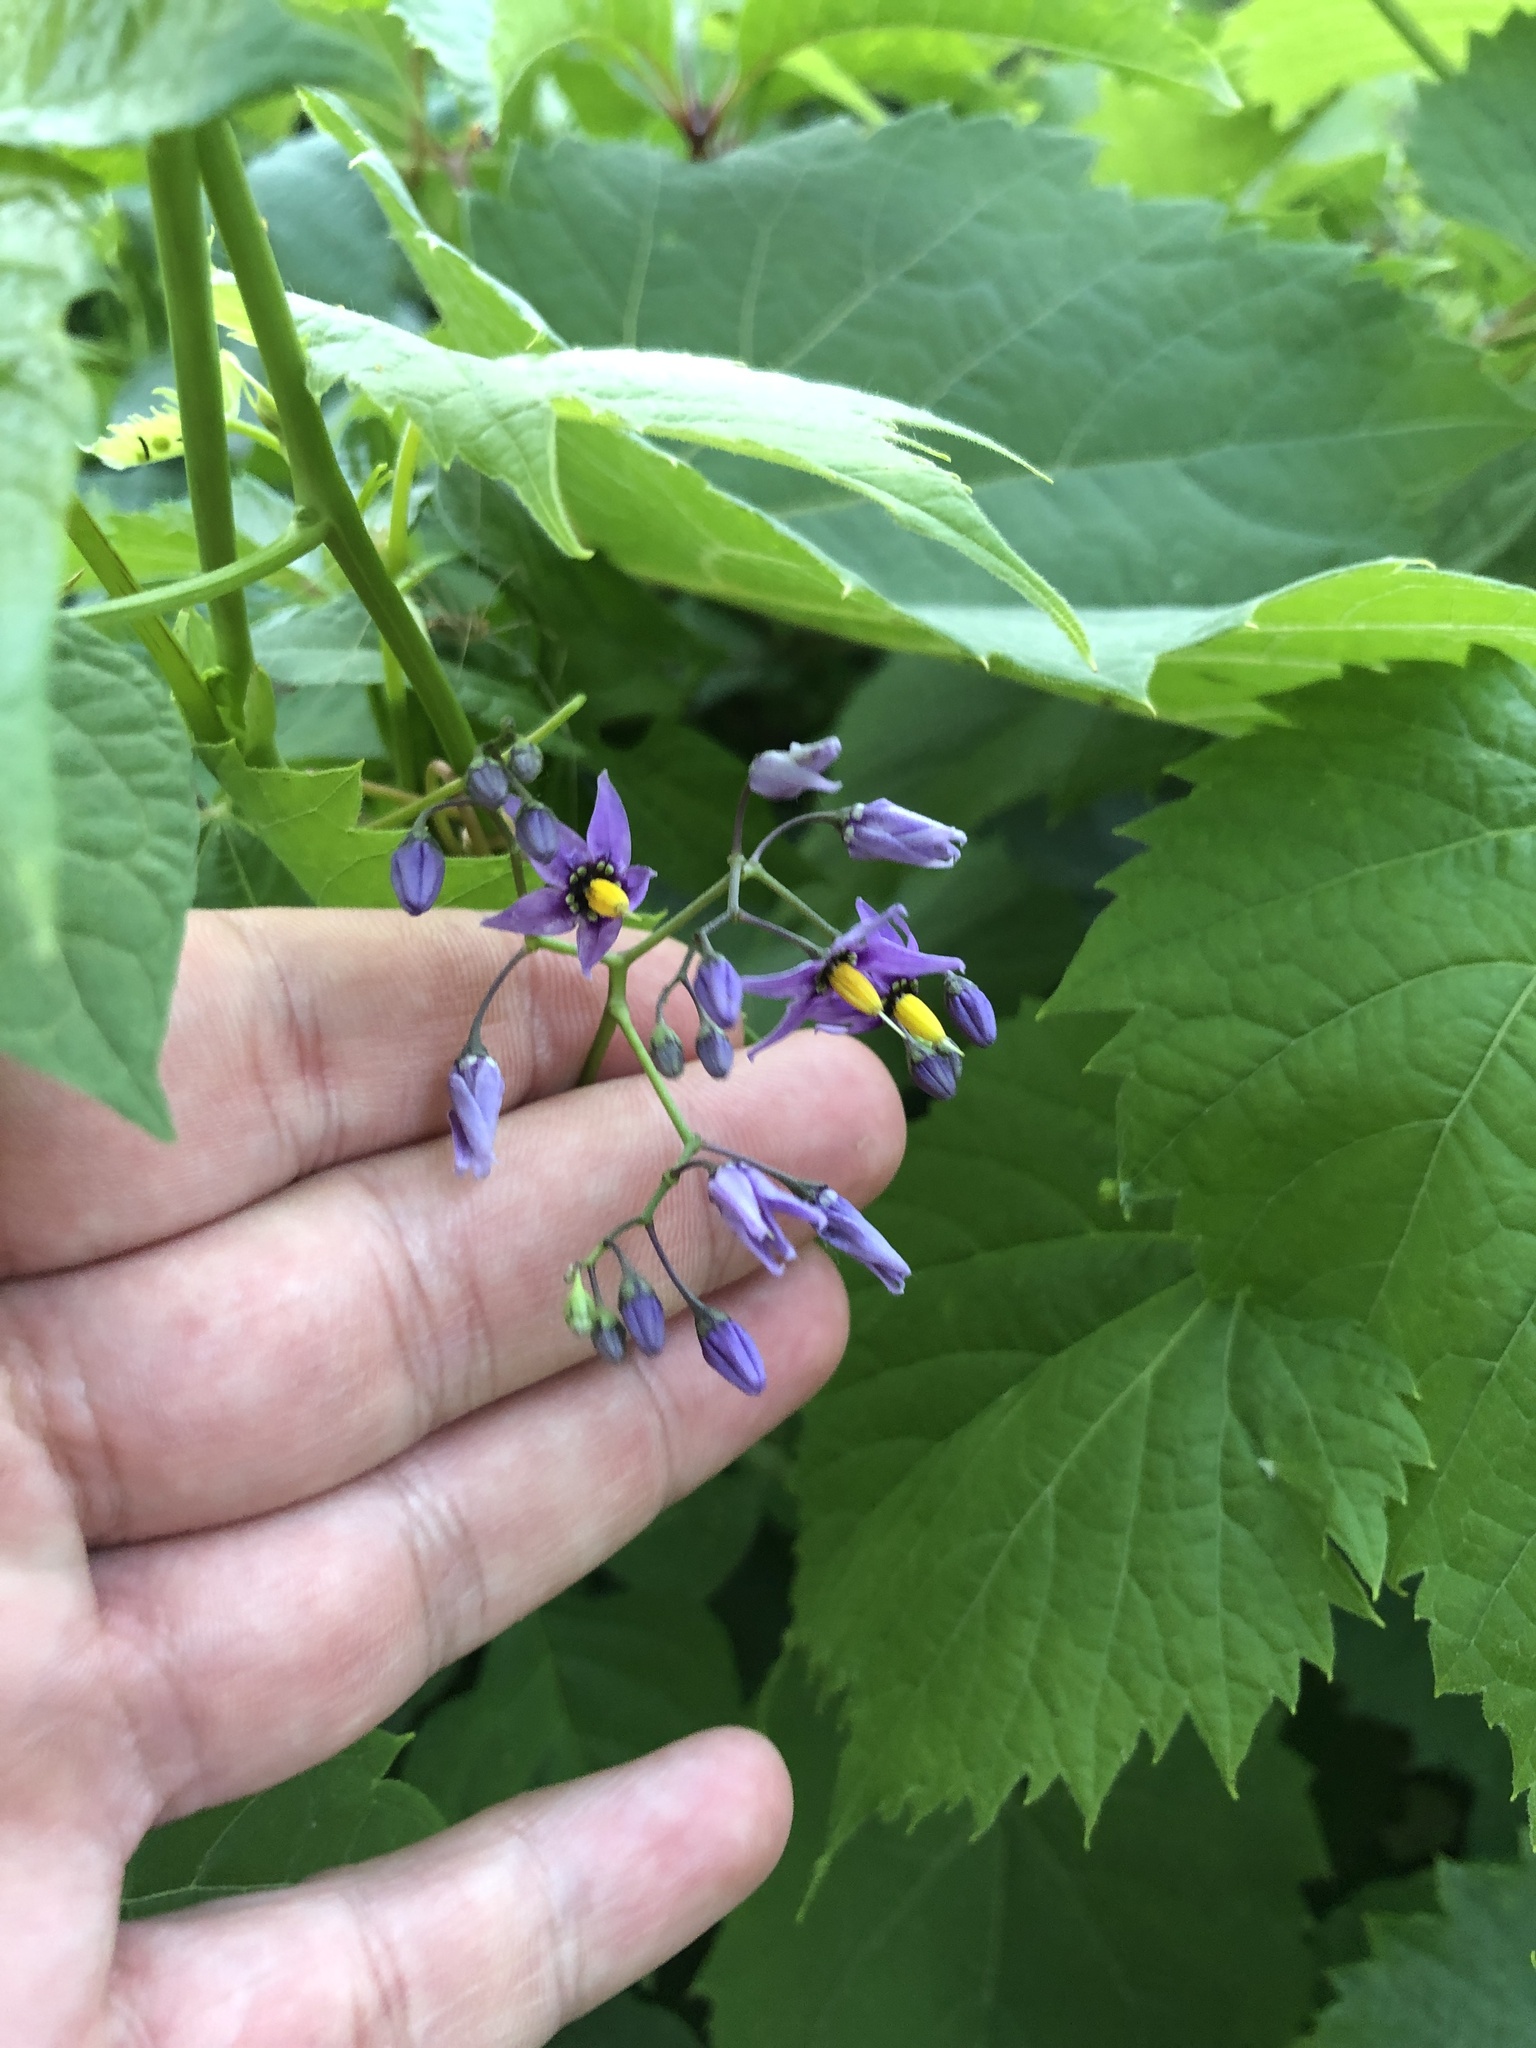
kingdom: Plantae
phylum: Tracheophyta
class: Magnoliopsida
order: Solanales
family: Solanaceae
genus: Solanum
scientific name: Solanum dulcamara
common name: Climbing nightshade
